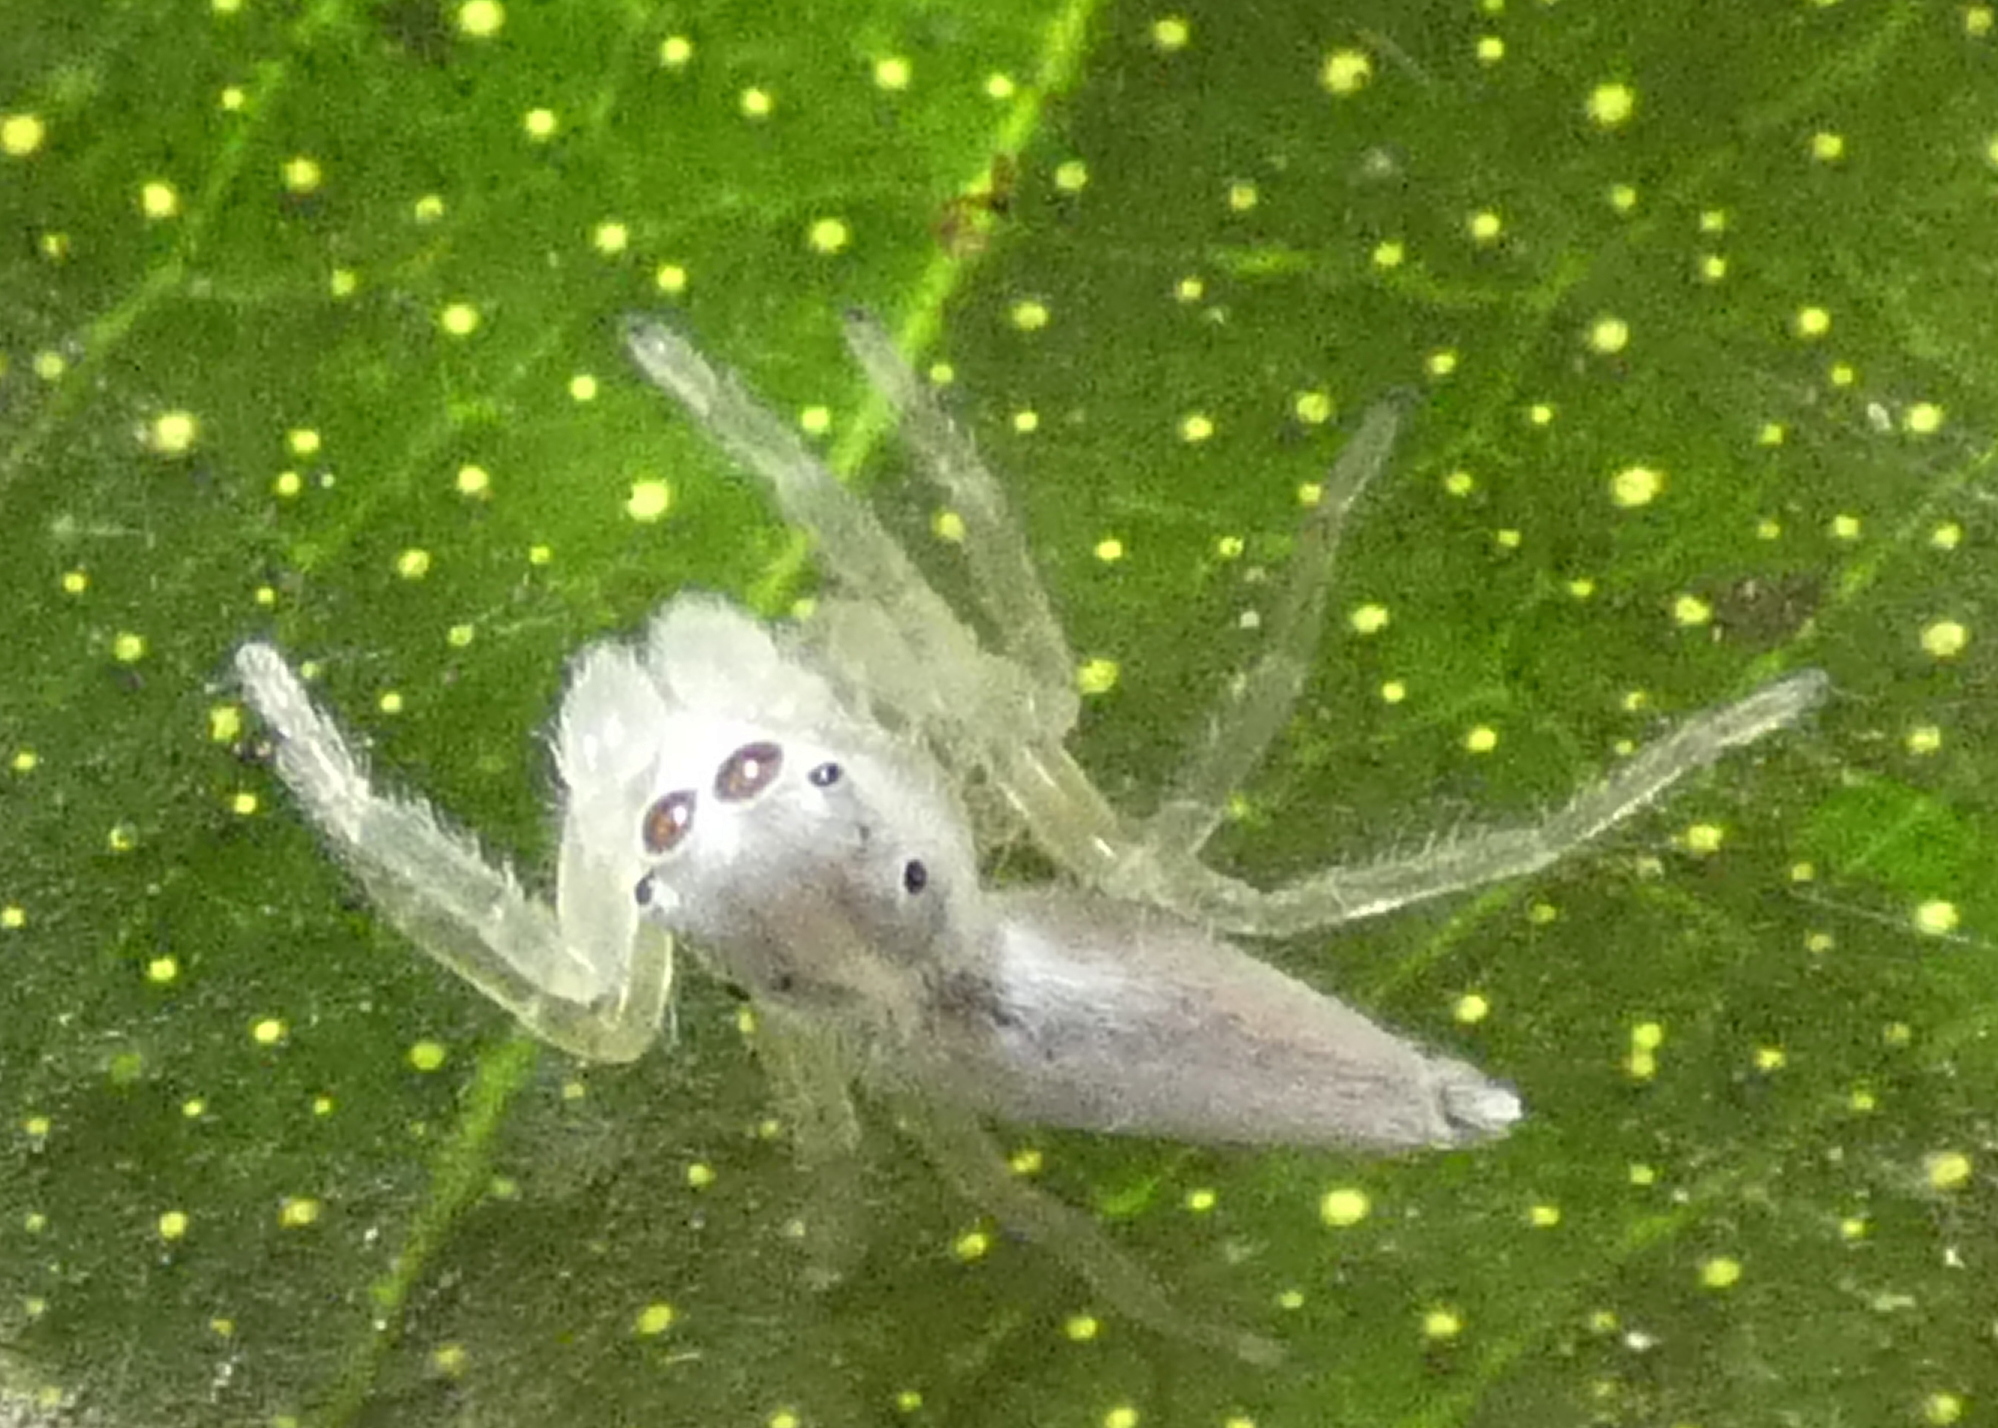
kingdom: Animalia
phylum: Arthropoda
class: Arachnida
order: Araneae
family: Salticidae
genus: Chira
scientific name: Chira trivittata
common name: Jumping spiders
